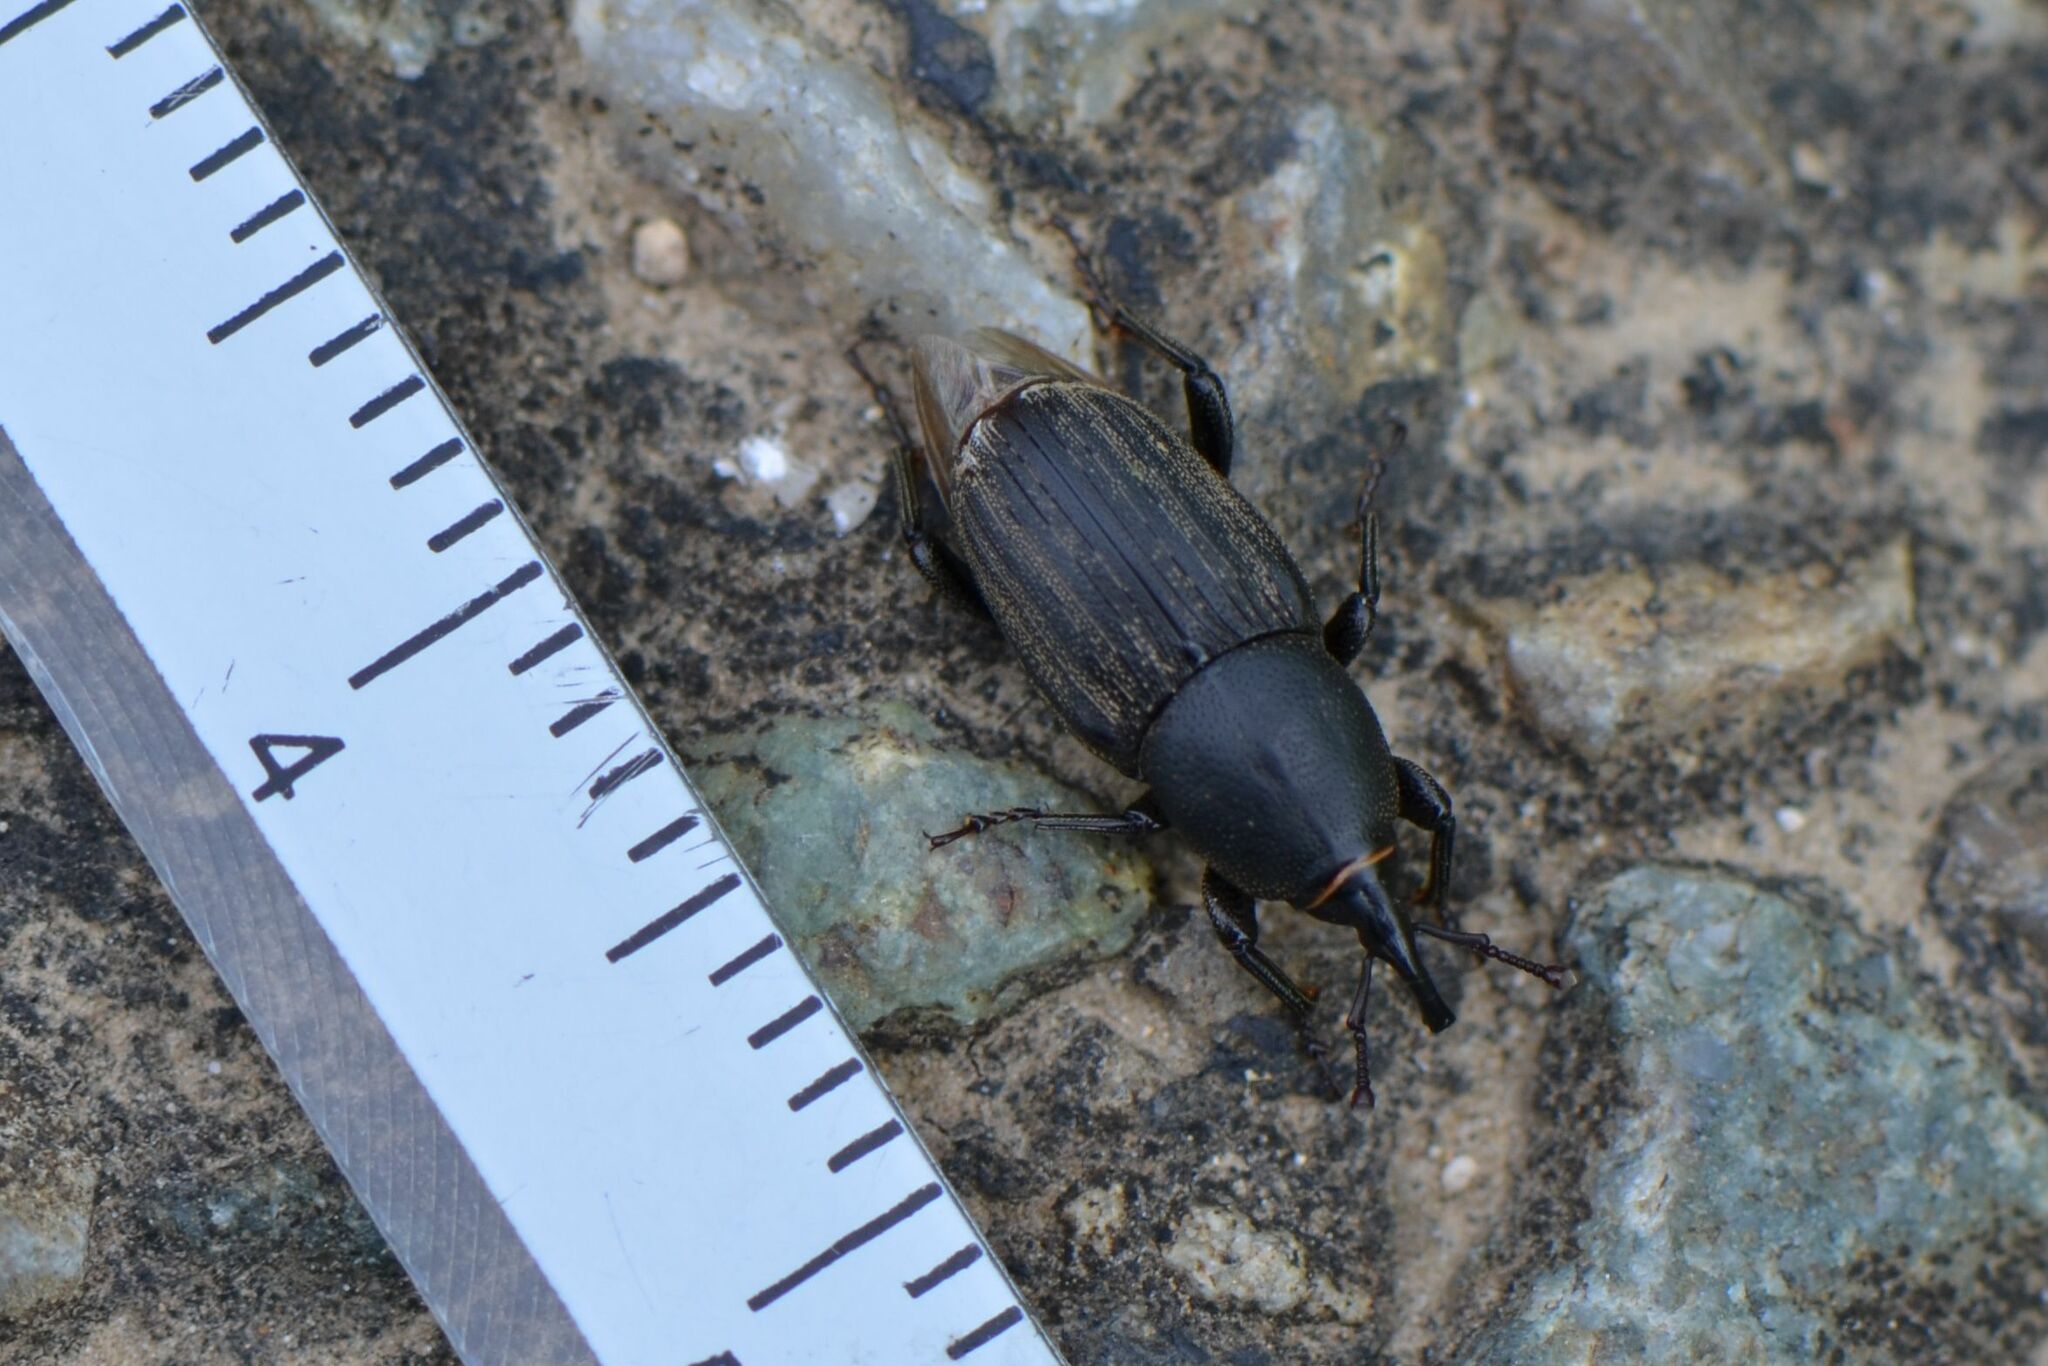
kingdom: Animalia
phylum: Arthropoda
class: Insecta
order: Coleoptera
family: Dryophthoridae
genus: Sphenophorus
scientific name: Sphenophorus striatopunctatus
